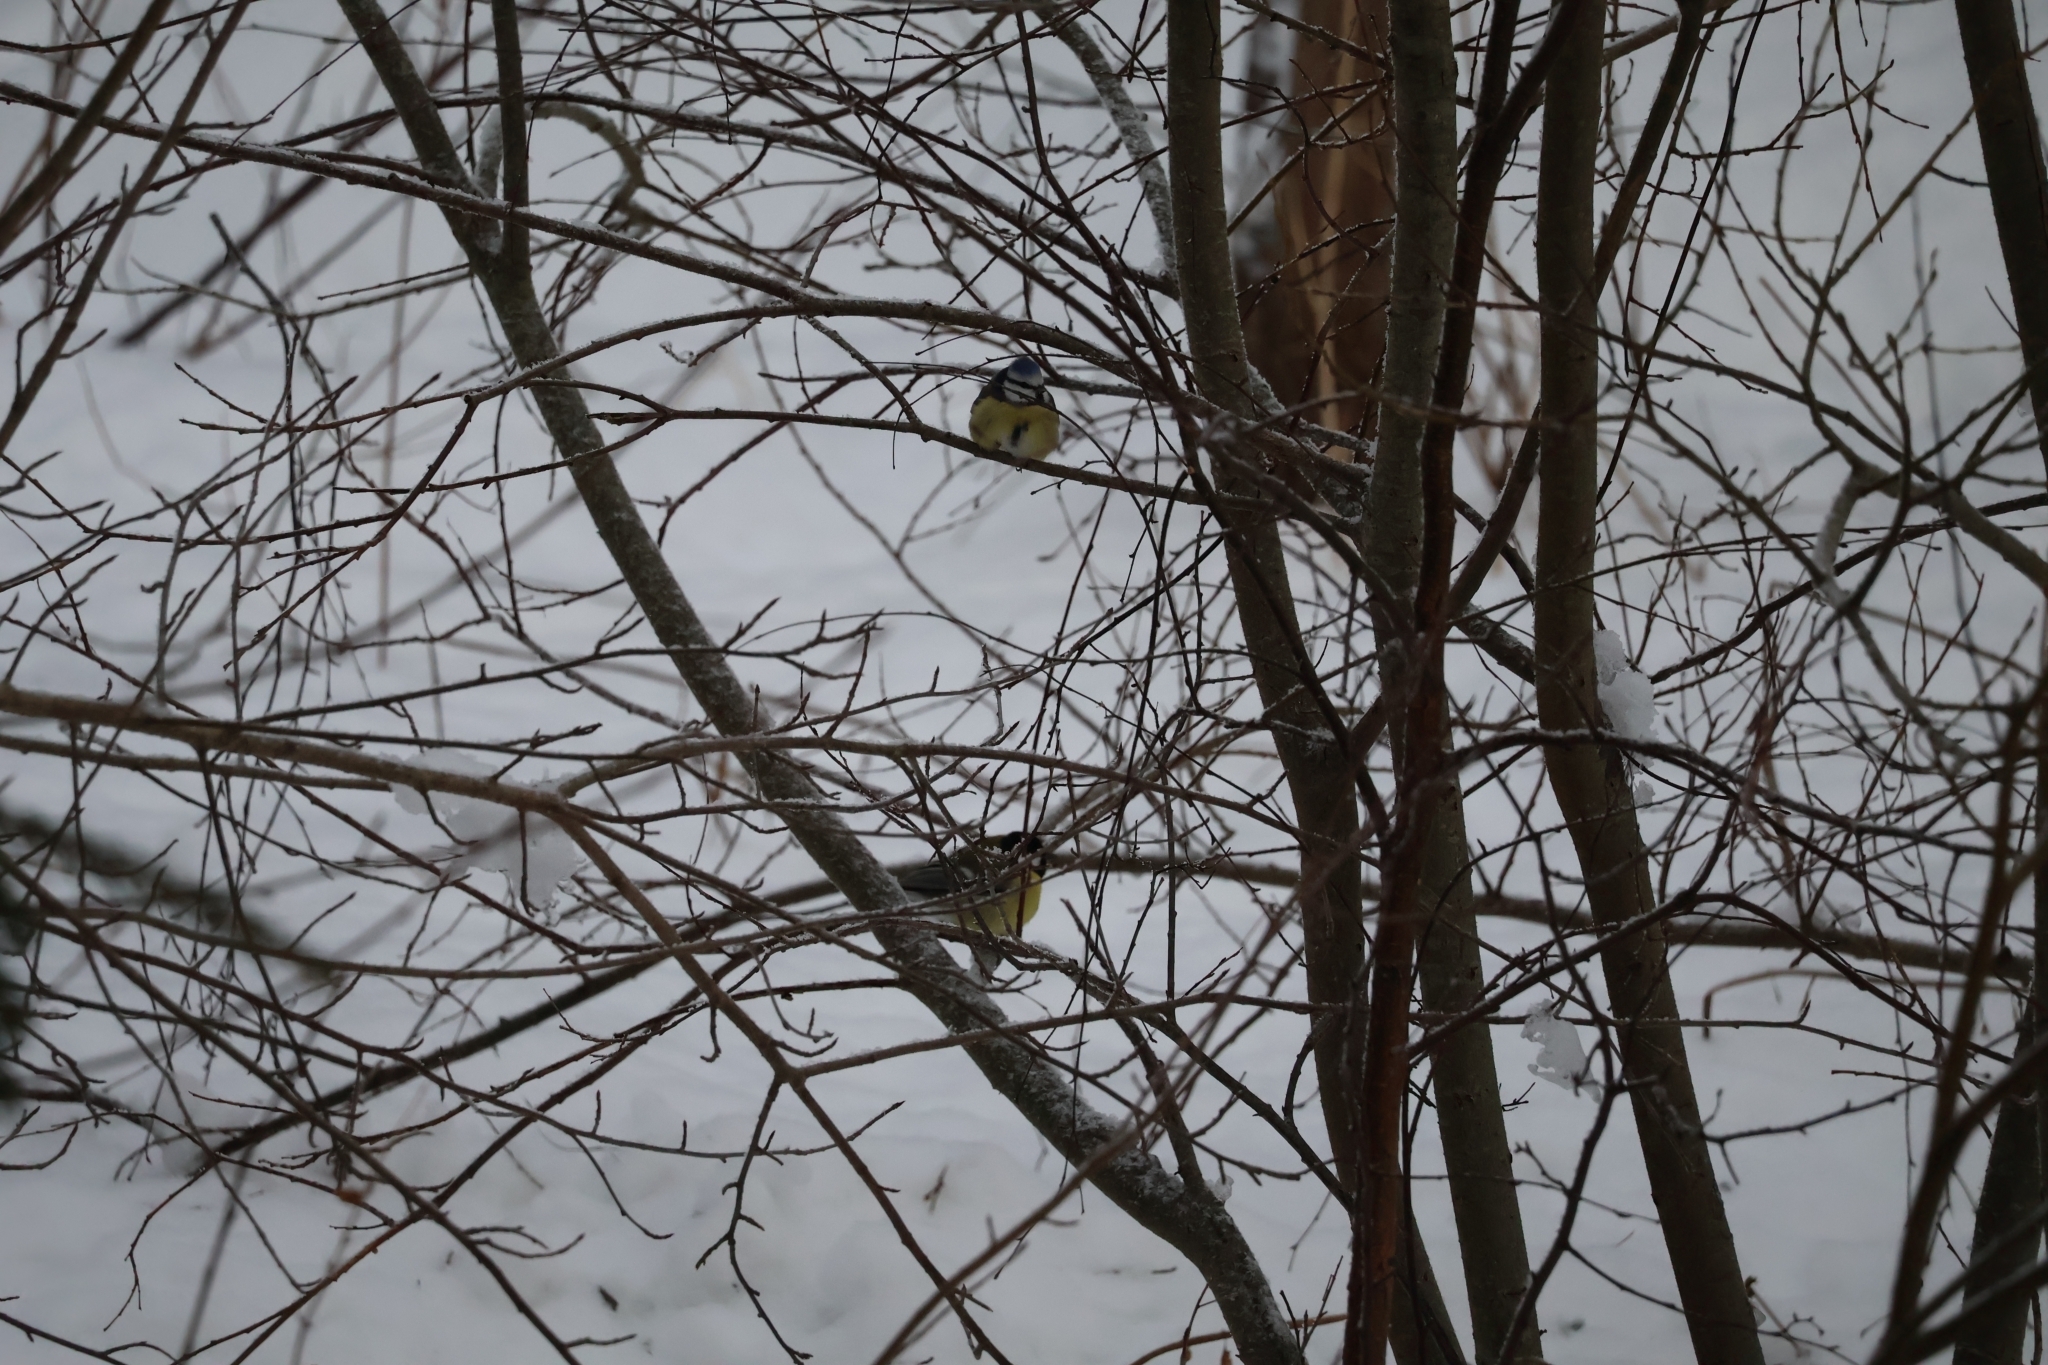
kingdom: Animalia
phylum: Chordata
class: Aves
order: Passeriformes
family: Paridae
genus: Parus
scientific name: Parus major
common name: Great tit
